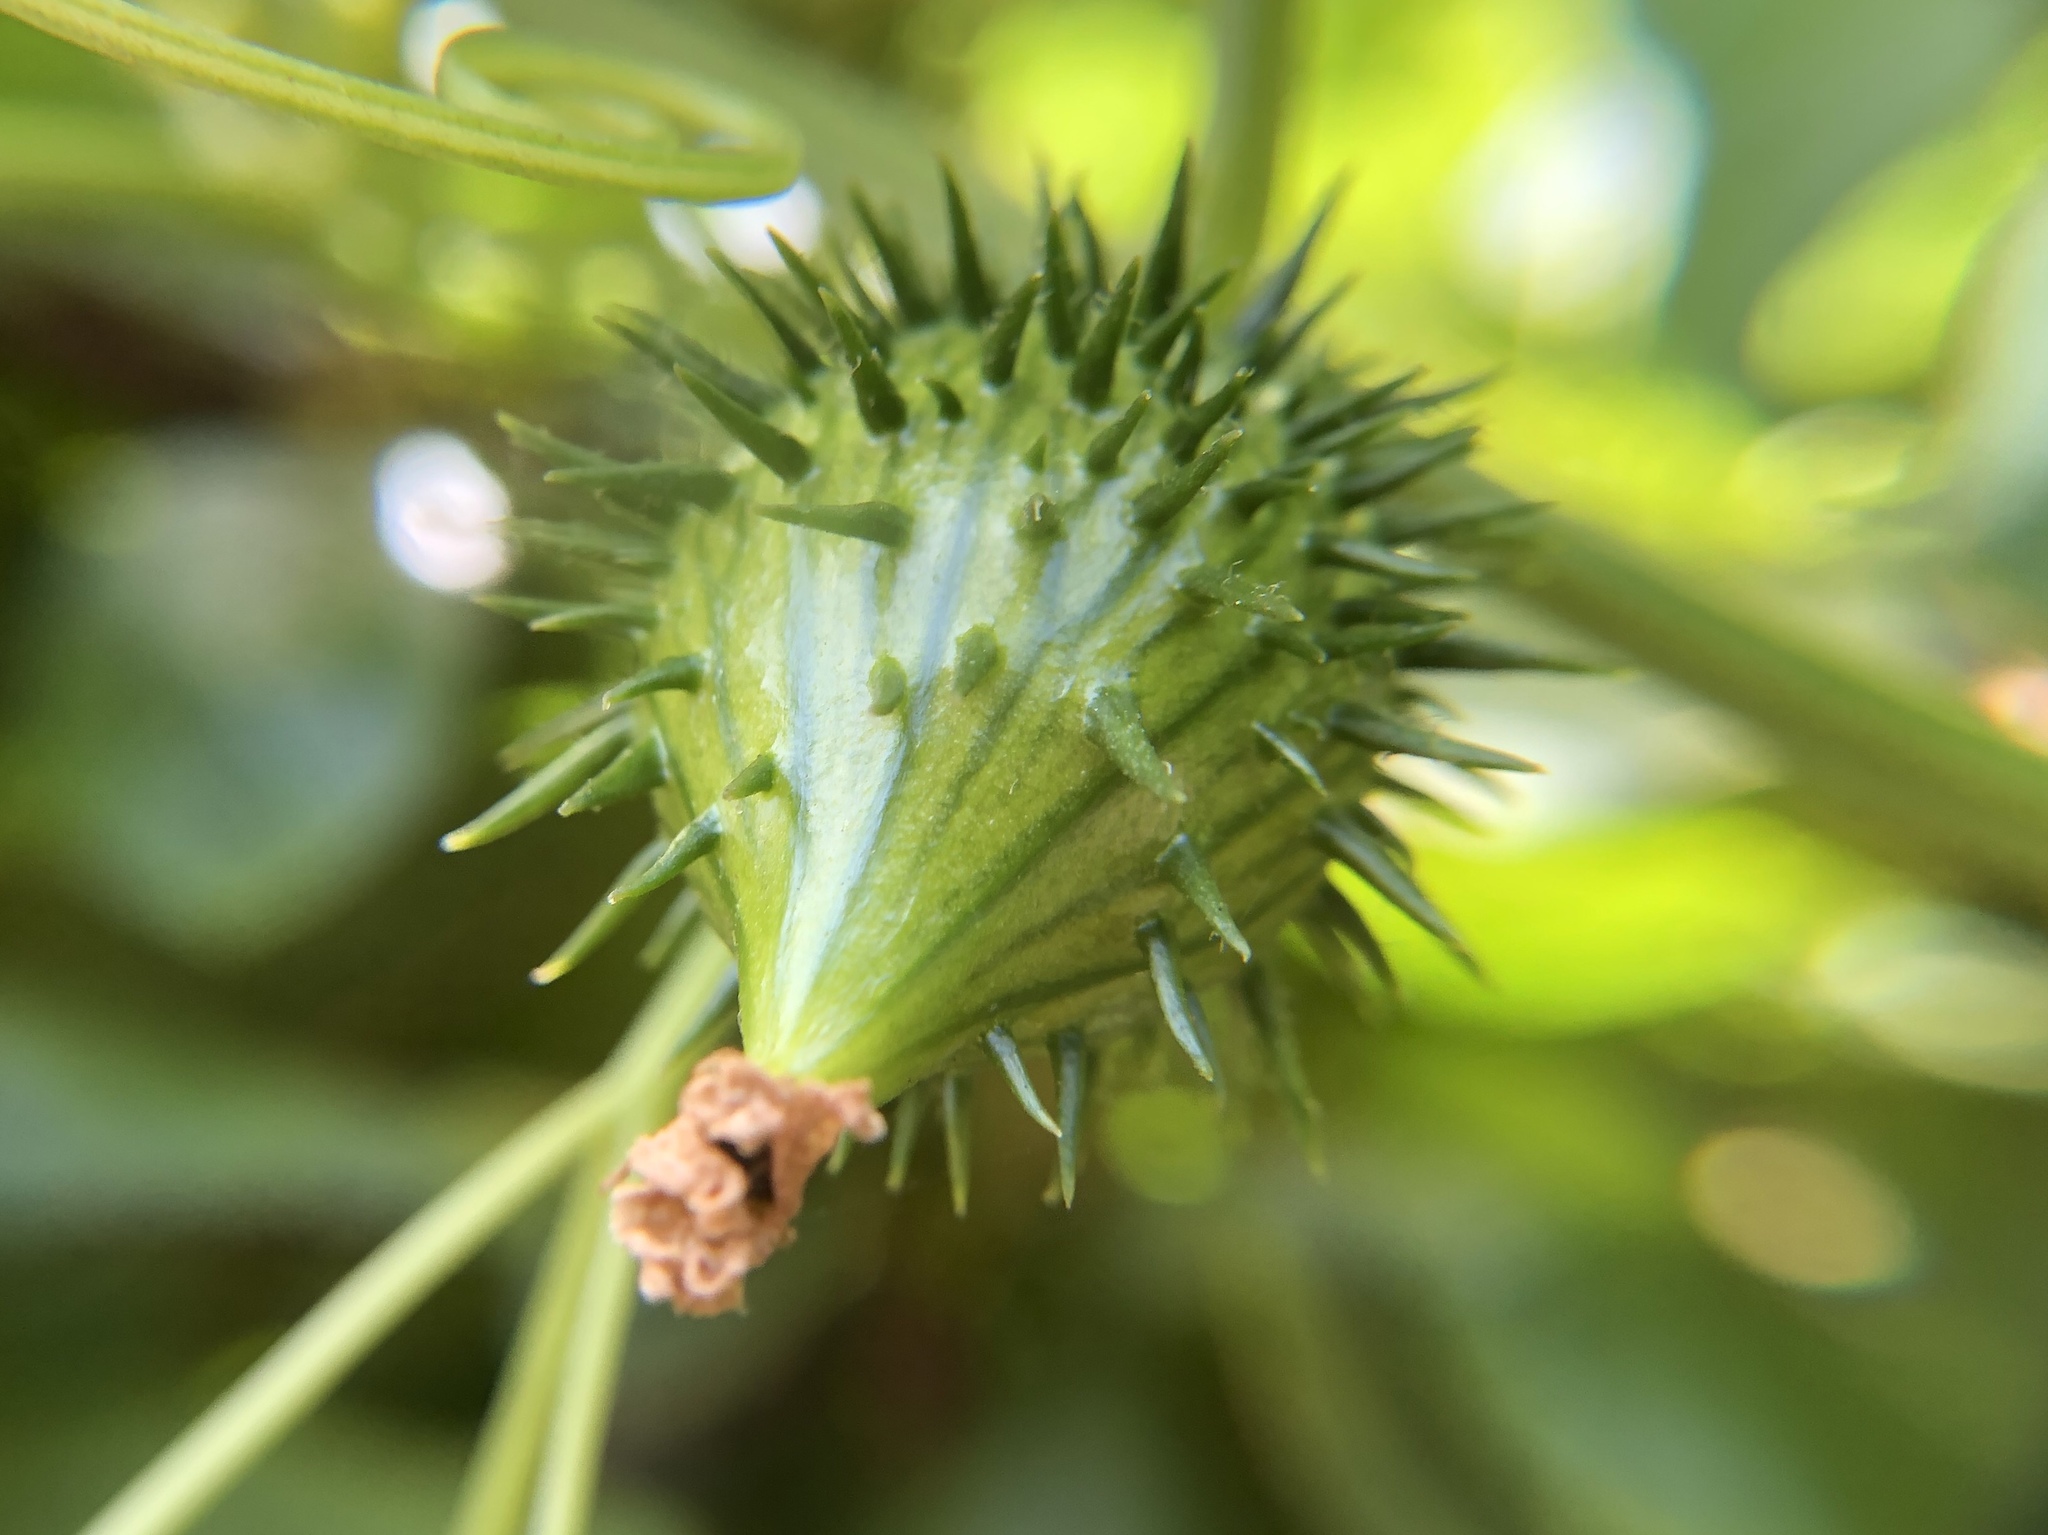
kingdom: Plantae
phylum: Tracheophyta
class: Magnoliopsida
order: Cucurbitales
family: Cucurbitaceae
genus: Marah
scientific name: Marah oregana
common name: Coastal manroot
